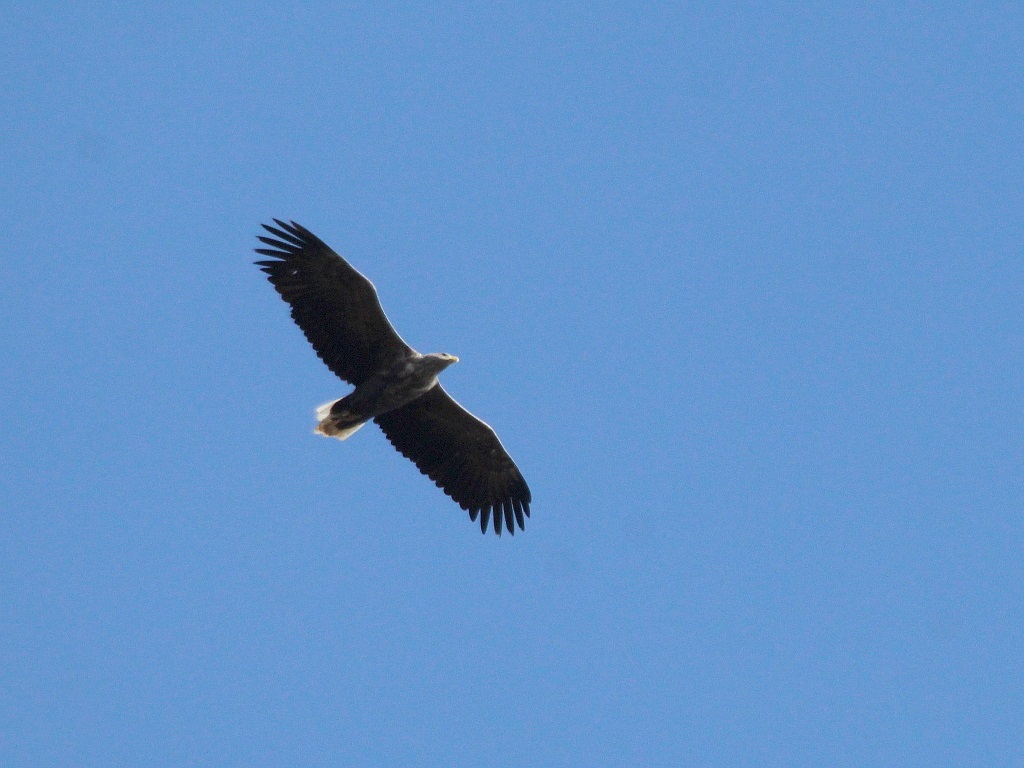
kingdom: Animalia
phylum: Chordata
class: Aves
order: Accipitriformes
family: Accipitridae
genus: Haliaeetus
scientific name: Haliaeetus albicilla
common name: White-tailed eagle
